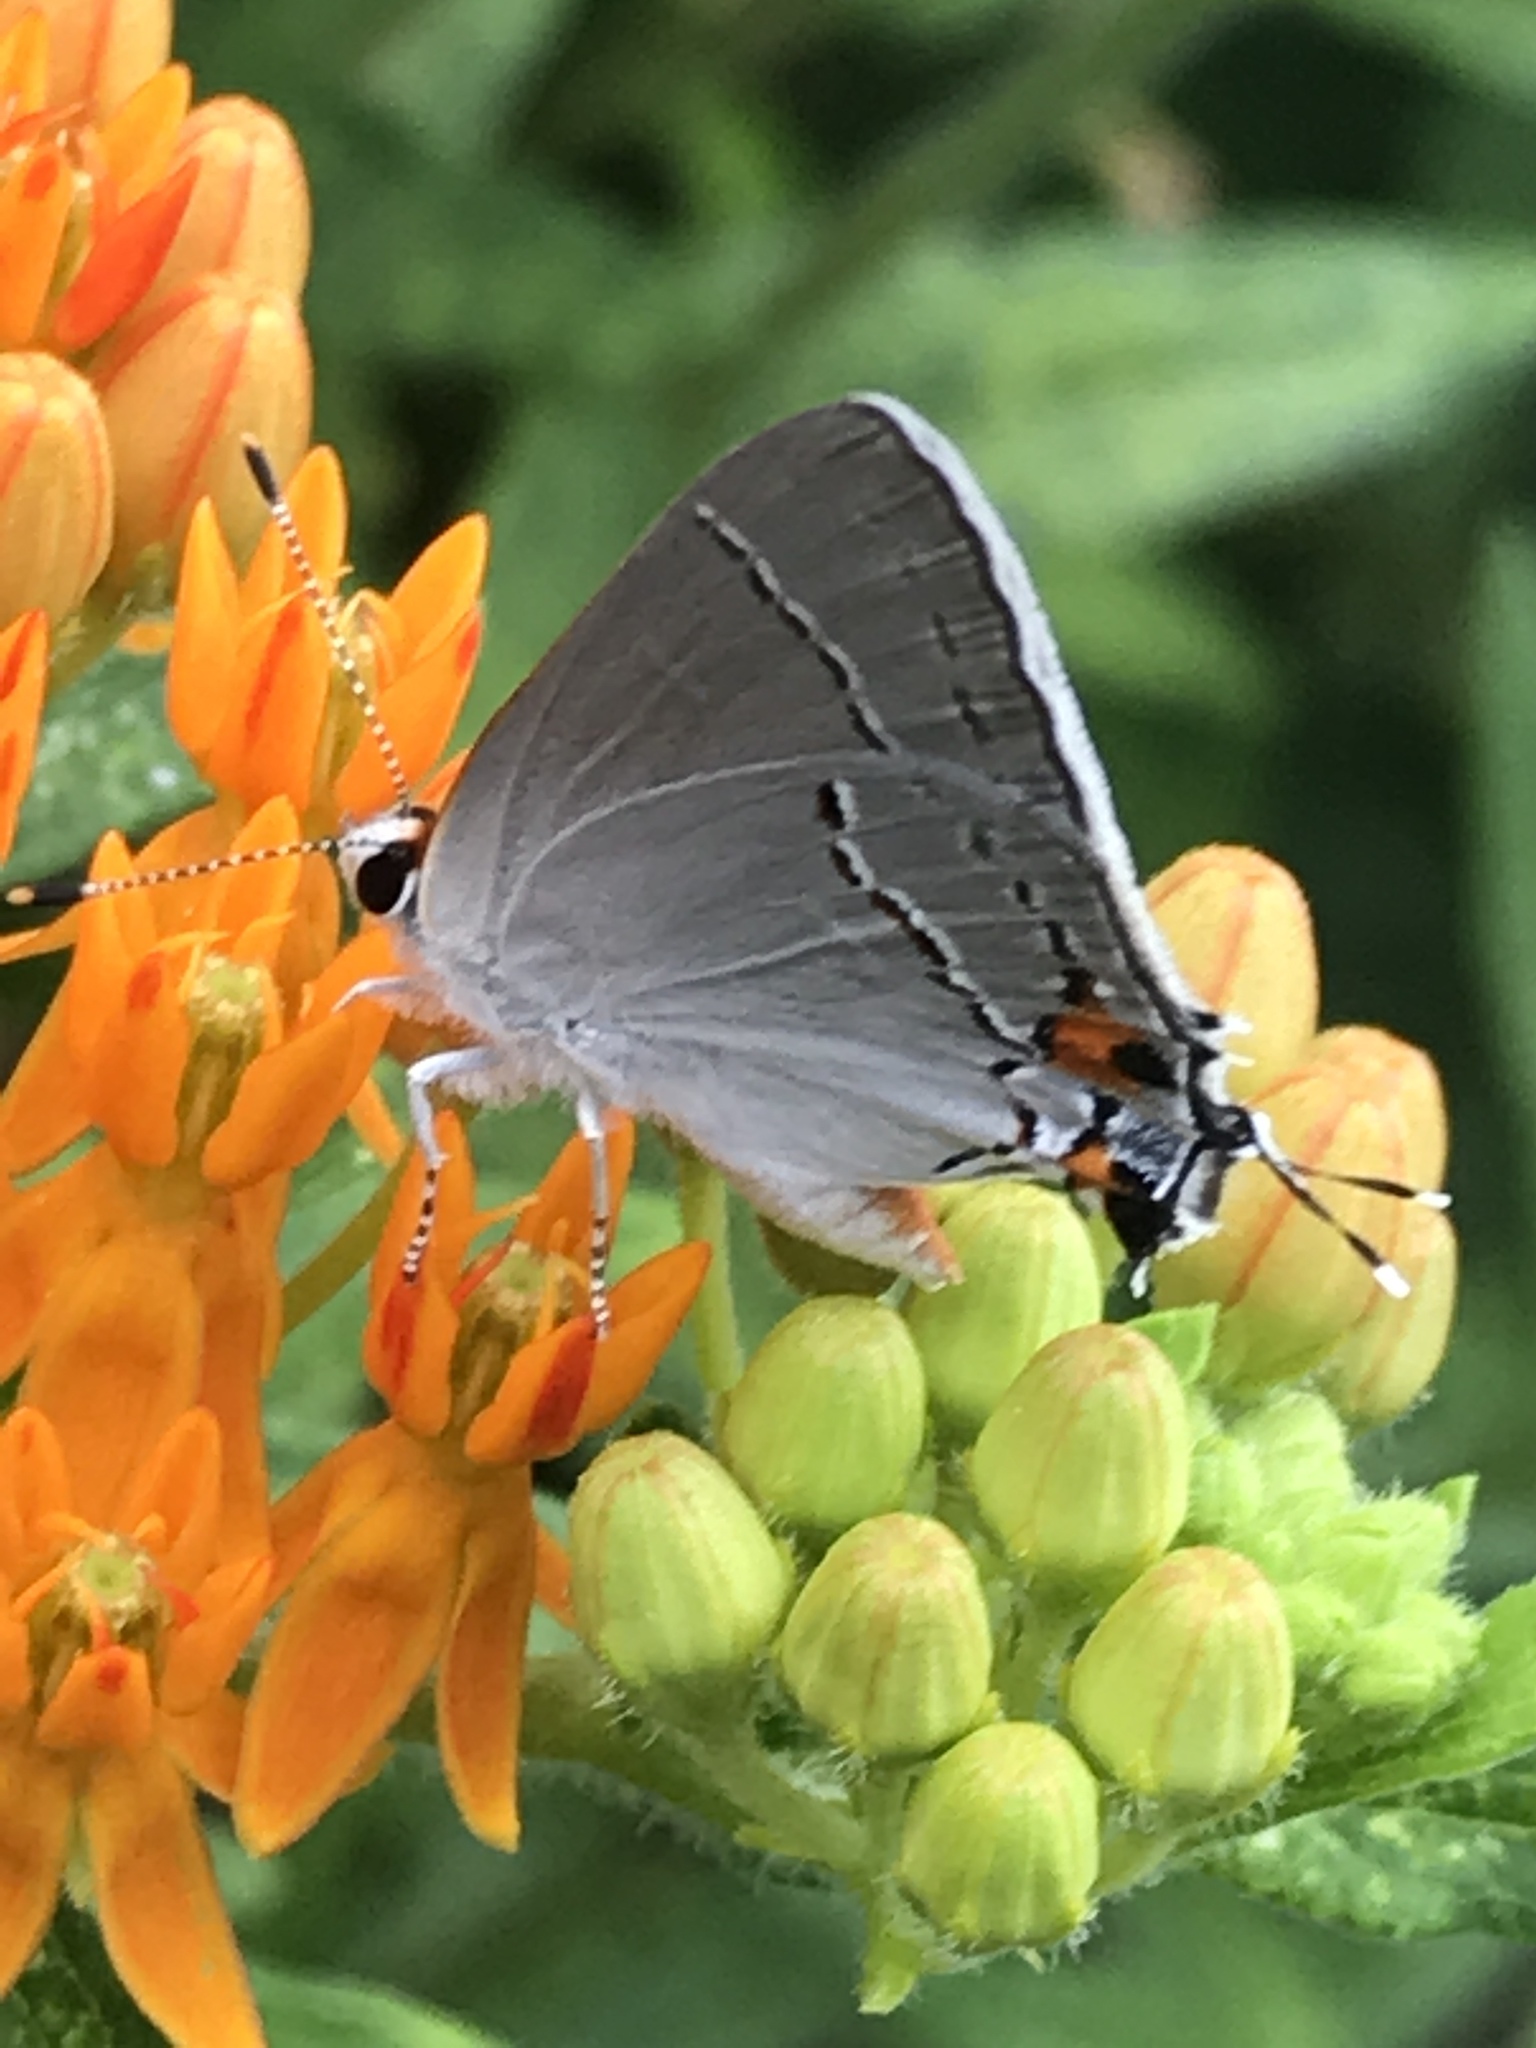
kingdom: Animalia
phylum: Arthropoda
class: Insecta
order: Lepidoptera
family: Lycaenidae
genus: Strymon
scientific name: Strymon melinus
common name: Gray hairstreak
